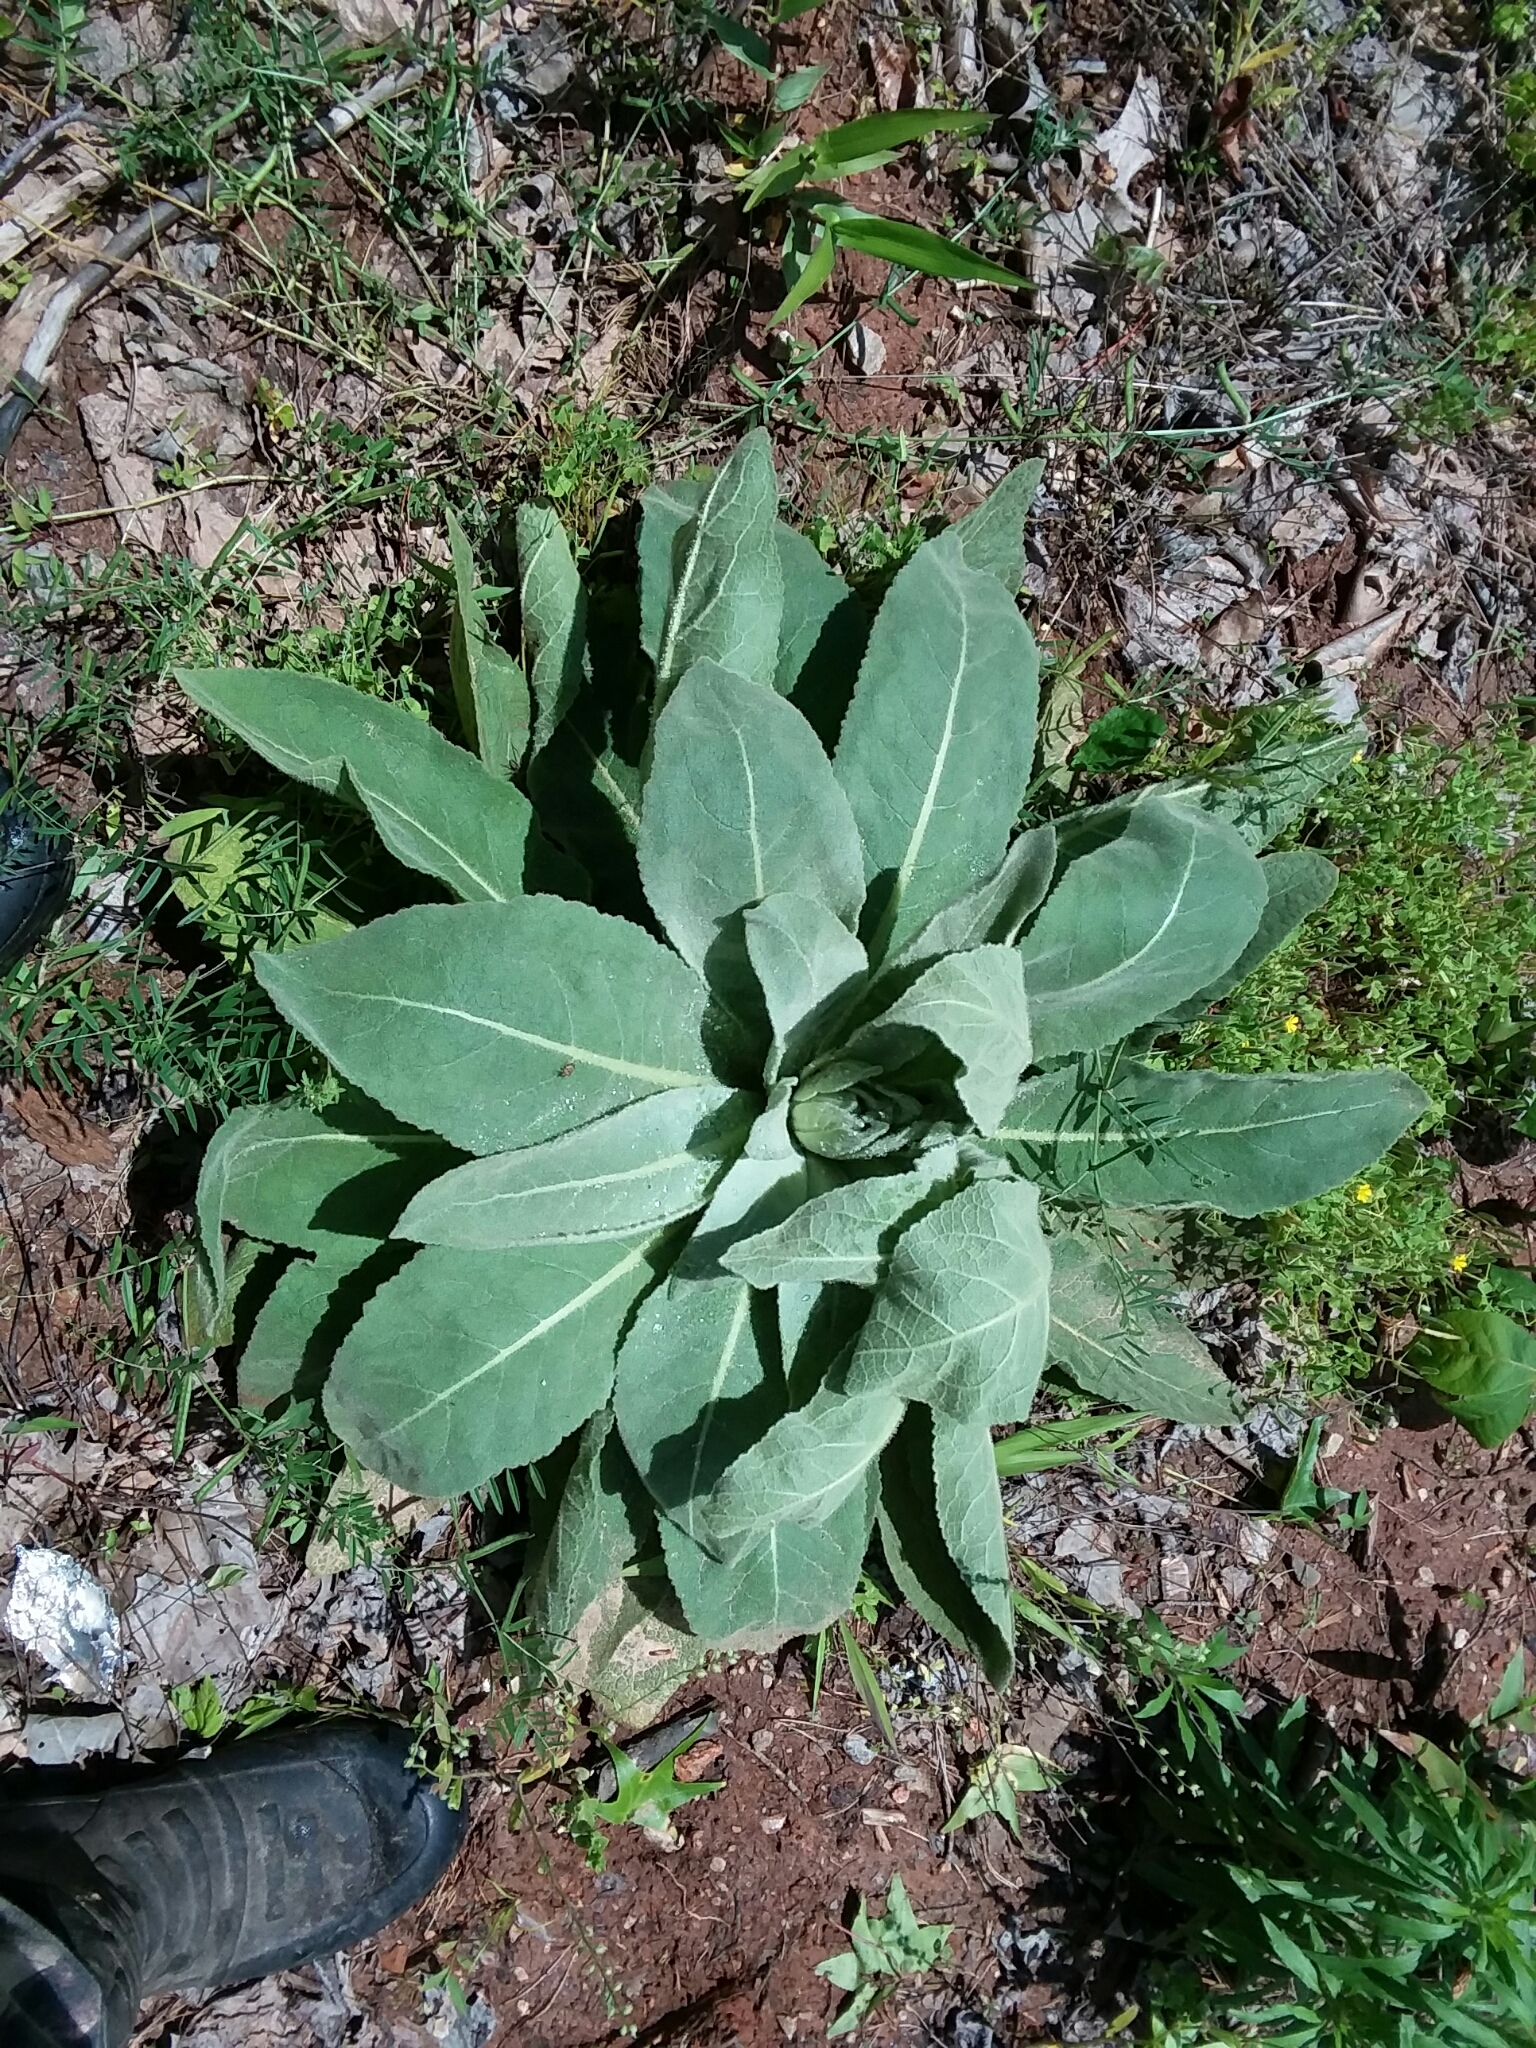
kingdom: Plantae
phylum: Tracheophyta
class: Magnoliopsida
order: Lamiales
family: Scrophulariaceae
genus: Verbascum
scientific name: Verbascum thapsus
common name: Common mullein
